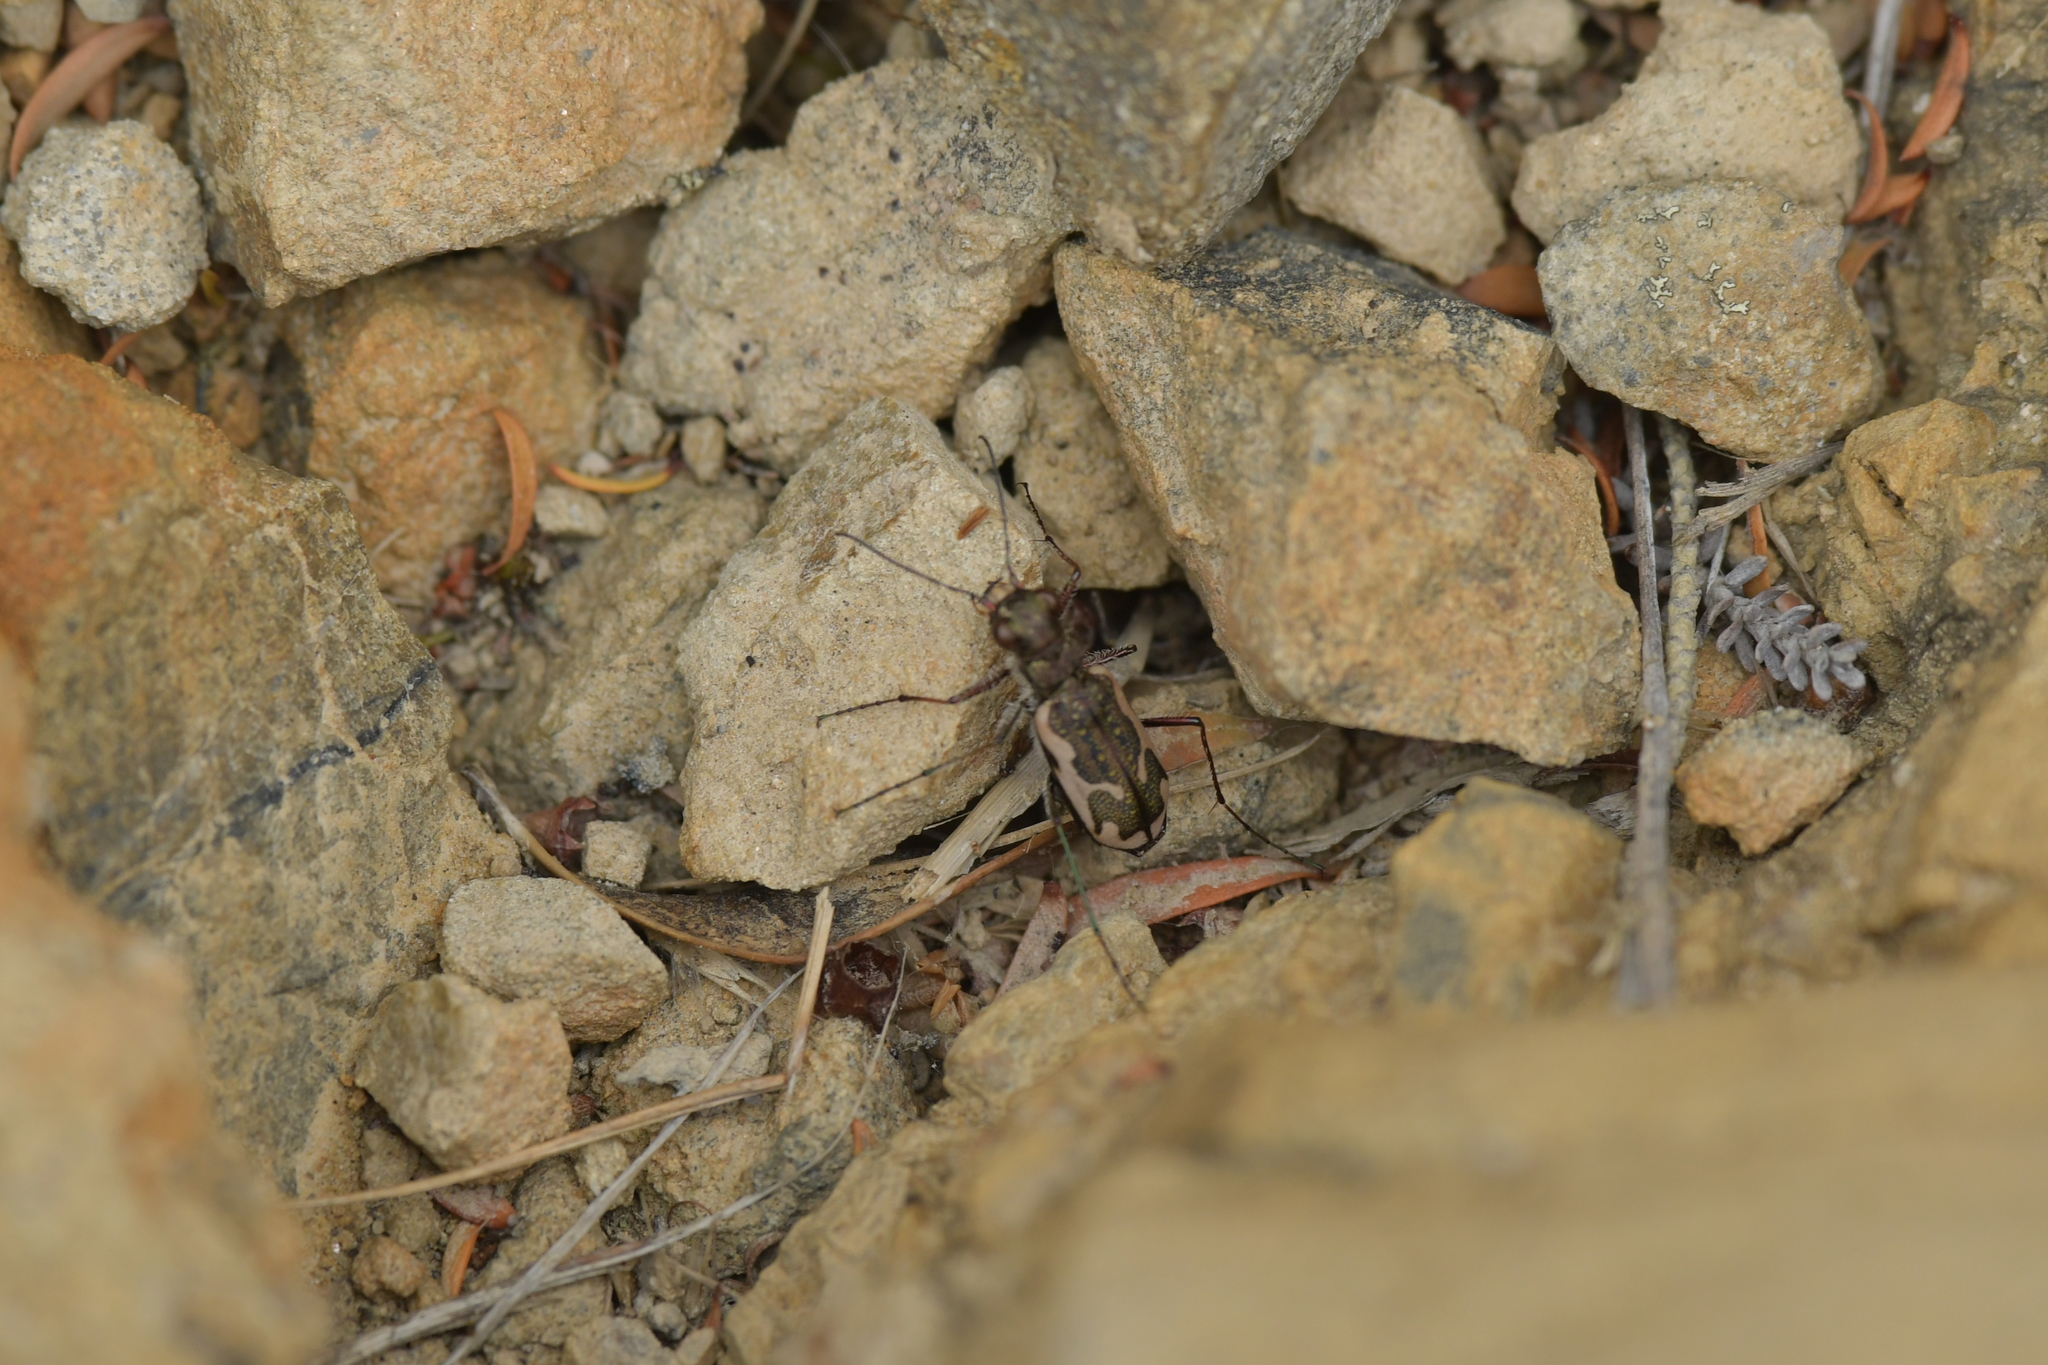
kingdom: Animalia
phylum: Arthropoda
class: Insecta
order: Coleoptera
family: Carabidae
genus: Neocicindela
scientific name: Neocicindela tuberculata
